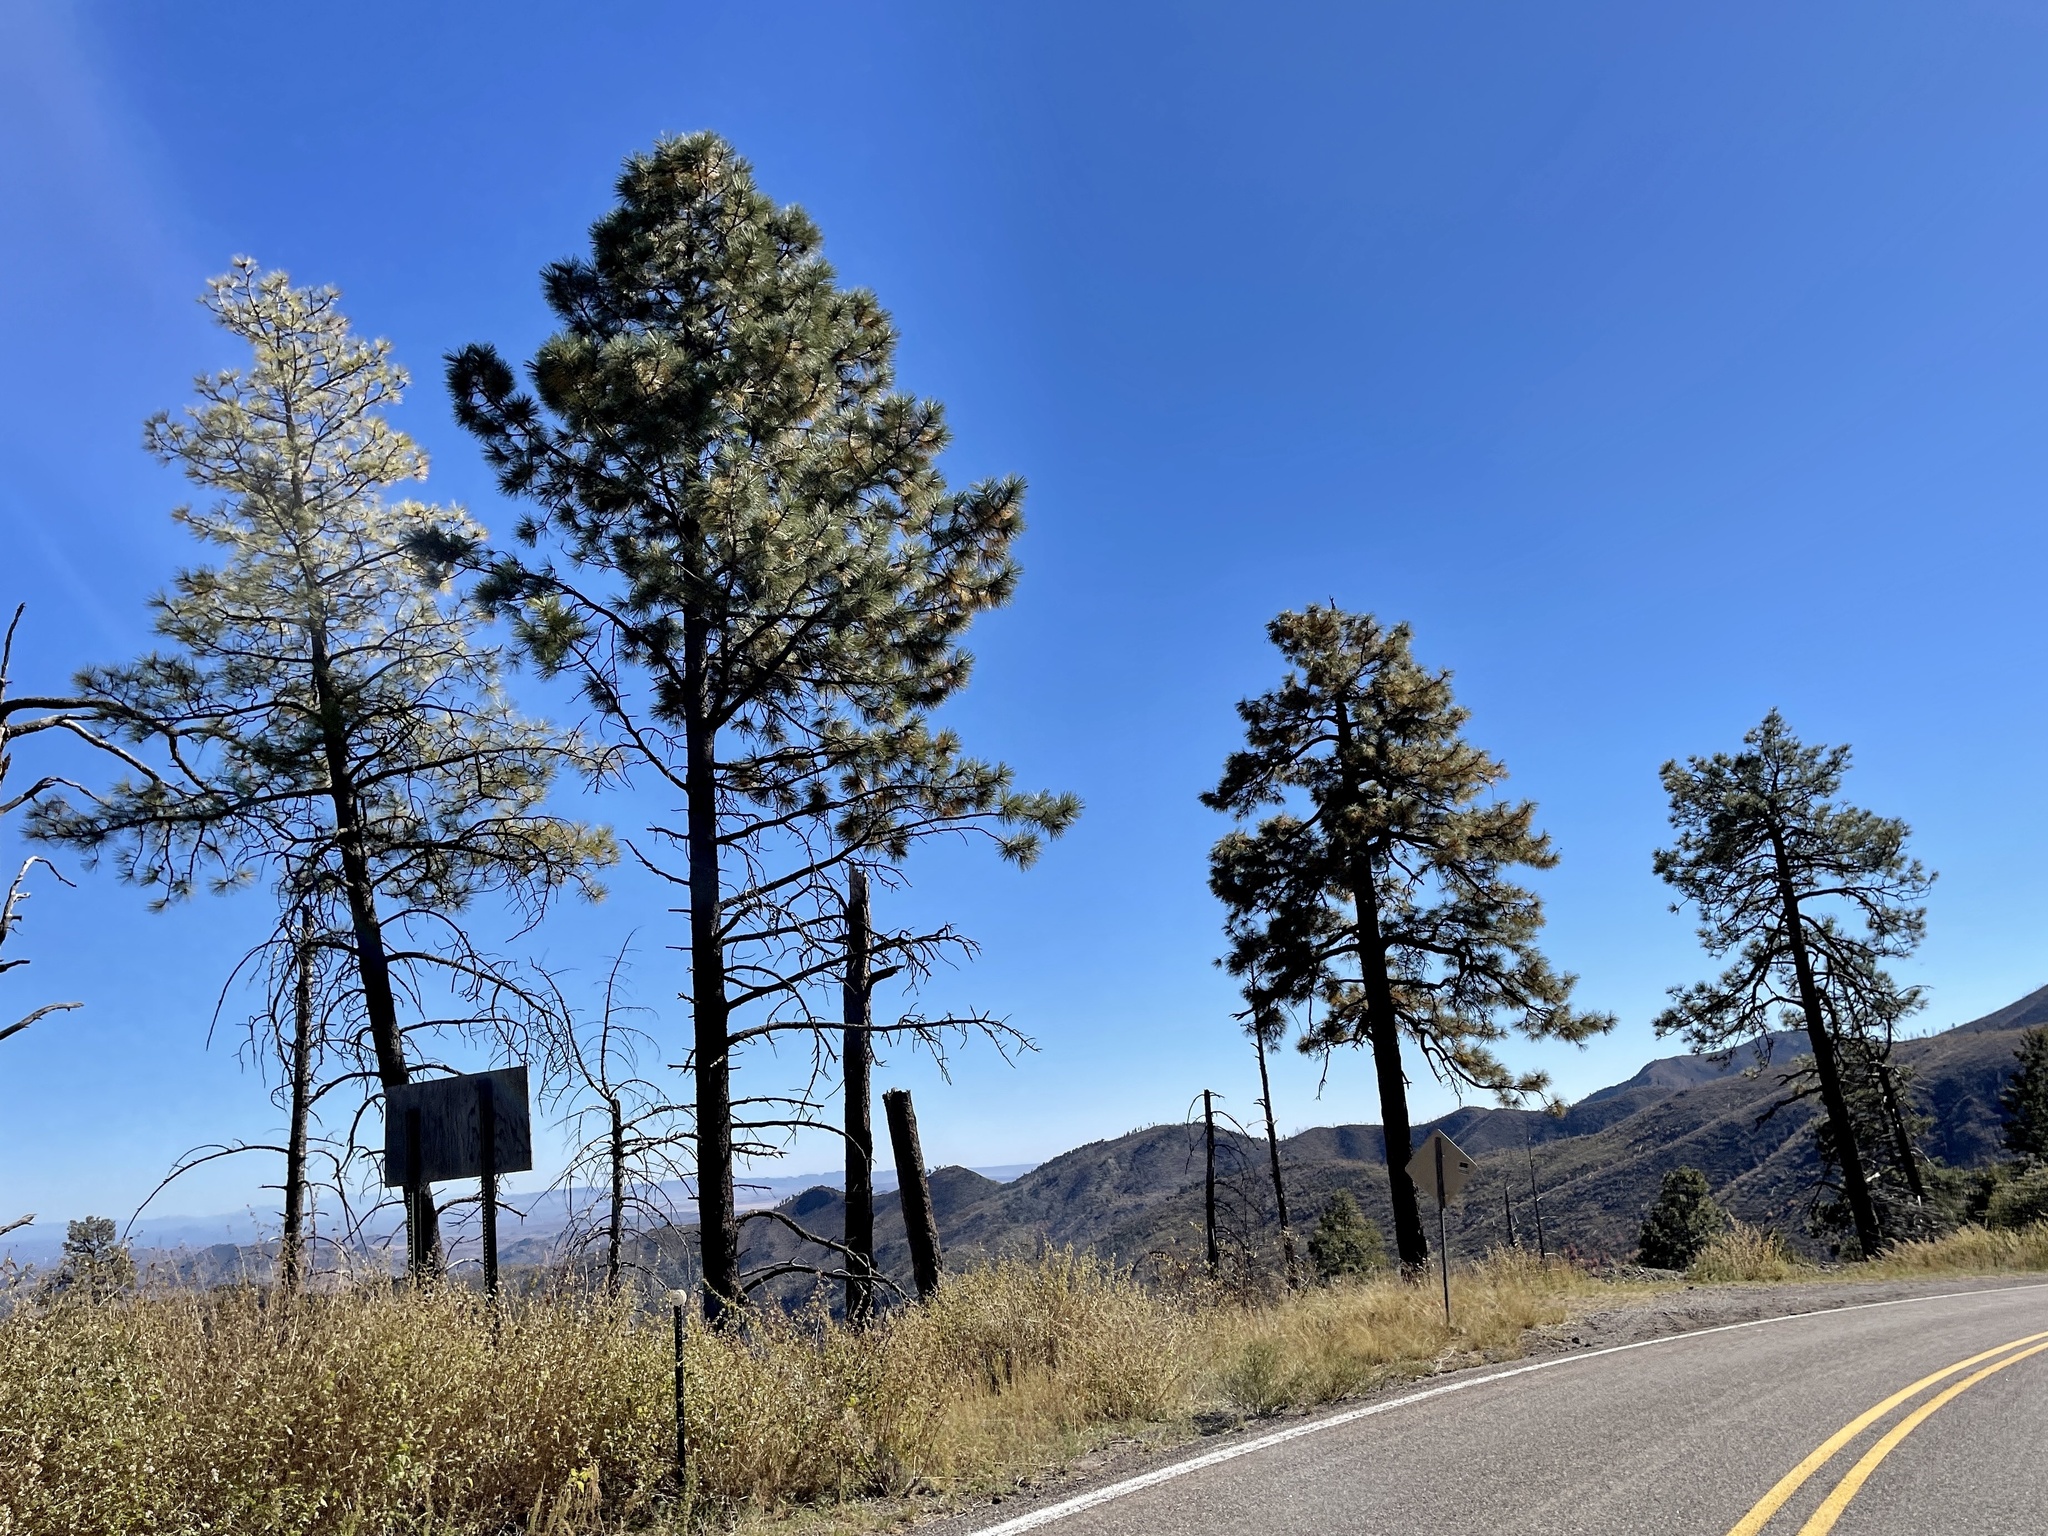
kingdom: Plantae
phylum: Tracheophyta
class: Pinopsida
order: Pinales
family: Pinaceae
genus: Pinus
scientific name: Pinus ponderosa
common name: Western yellow-pine
